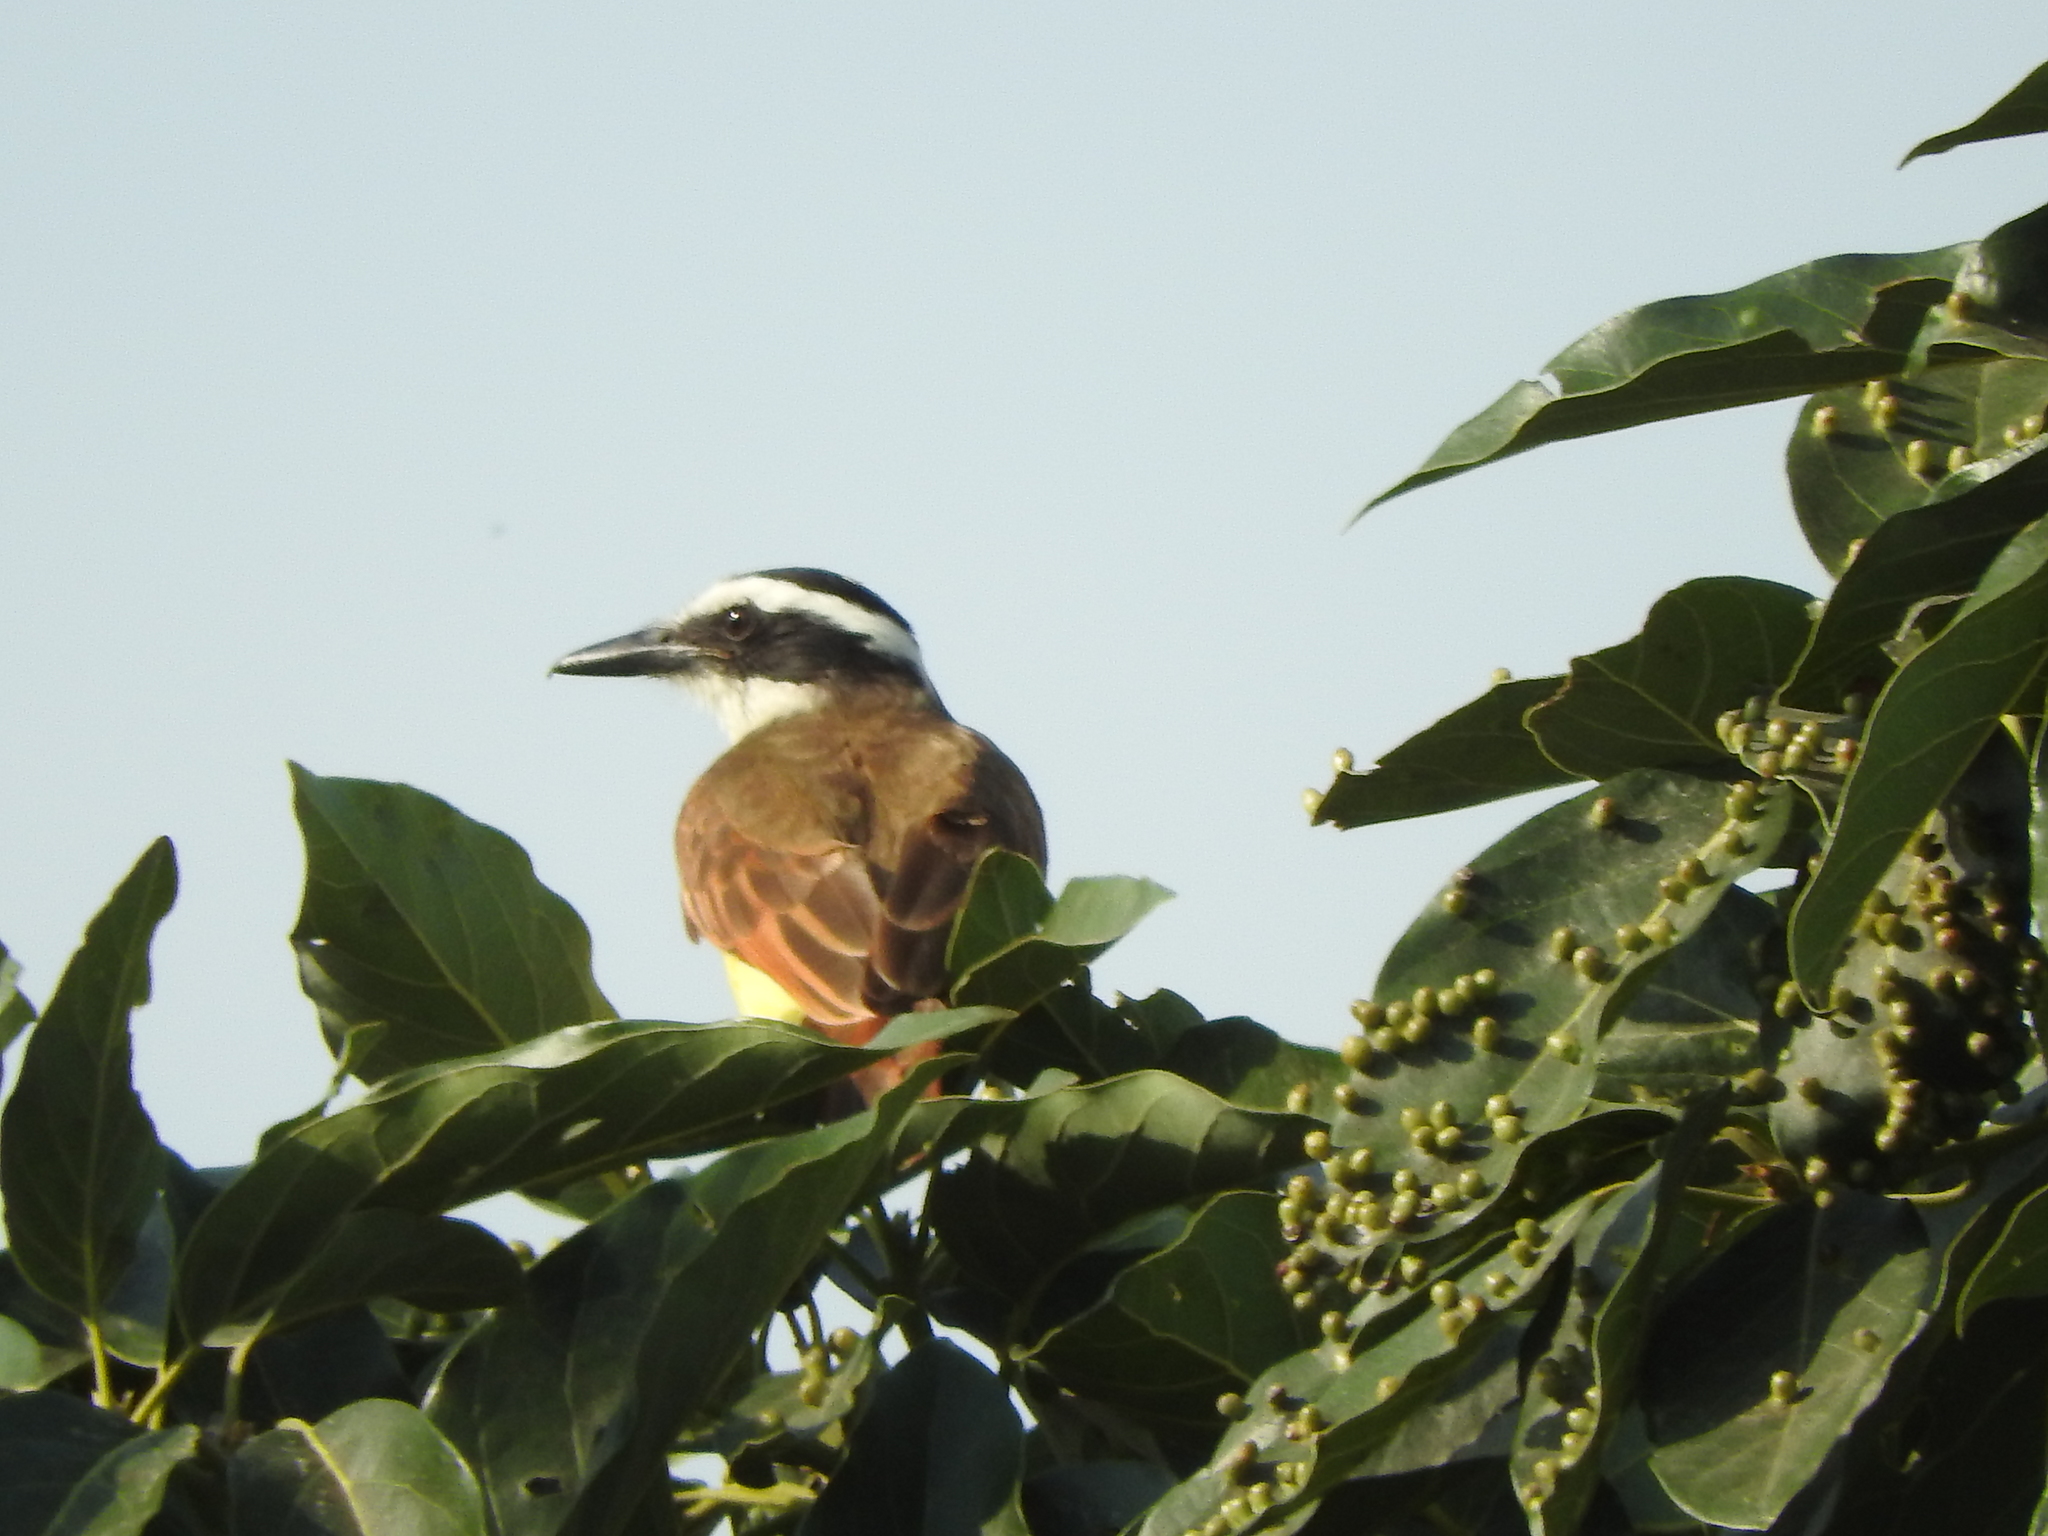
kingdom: Animalia
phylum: Chordata
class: Aves
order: Passeriformes
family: Tyrannidae
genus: Pitangus
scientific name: Pitangus sulphuratus
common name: Great kiskadee
